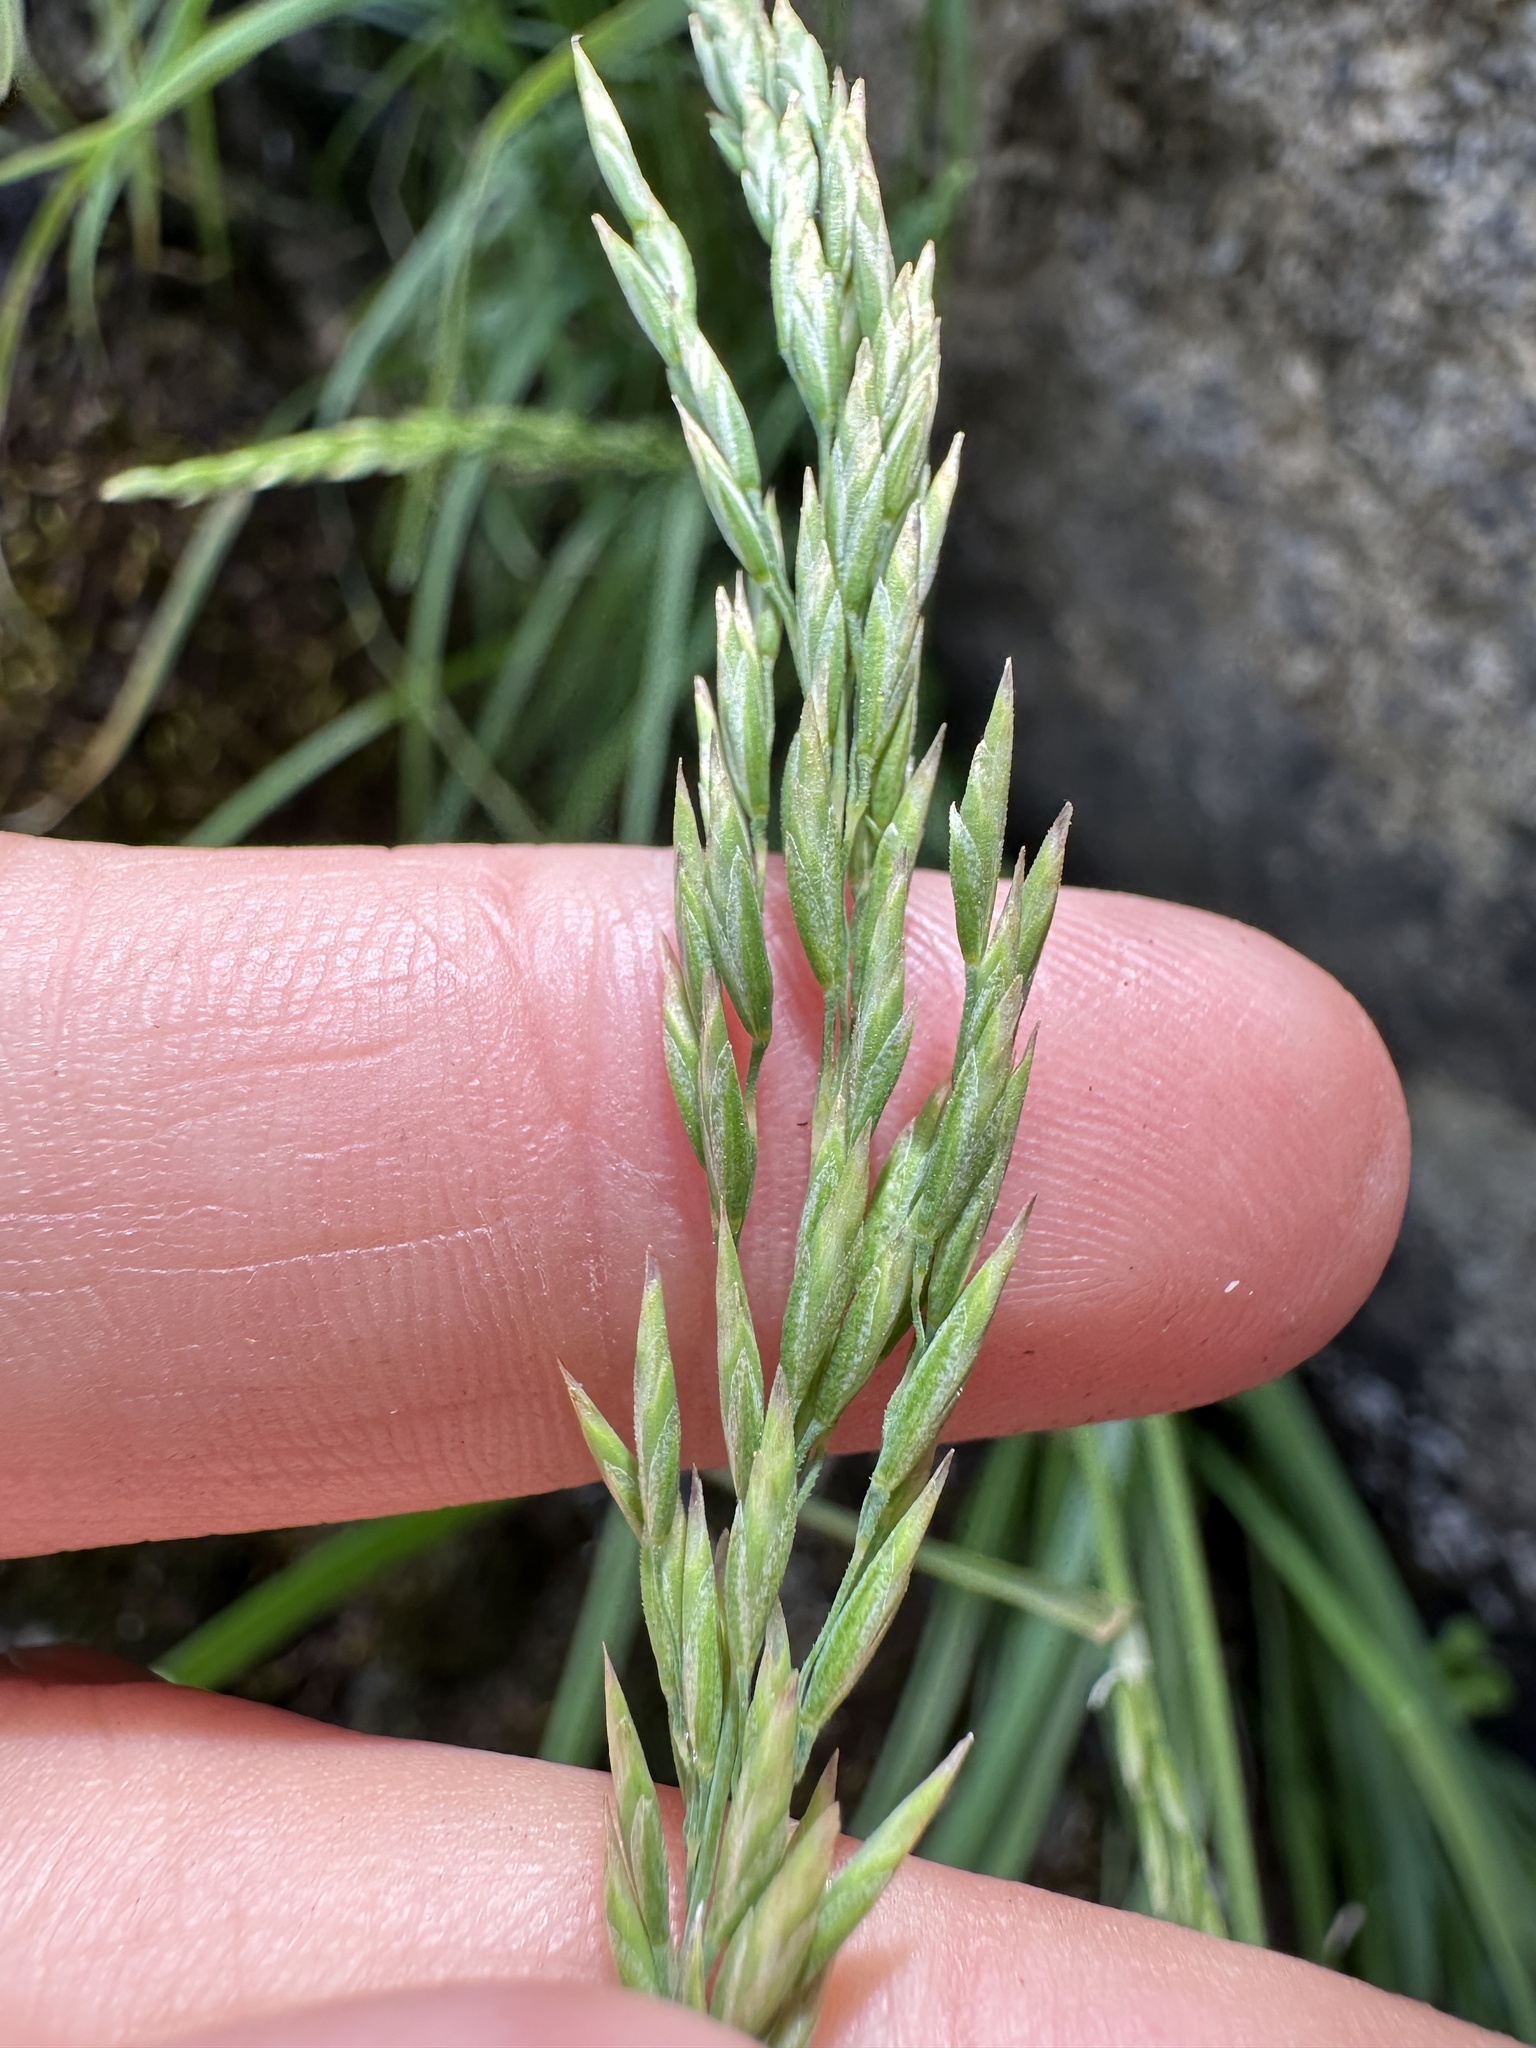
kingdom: Plantae
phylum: Tracheophyta
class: Liliopsida
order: Poales
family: Poaceae
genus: Poa
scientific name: Poa secunda
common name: Sandberg bluegrass
